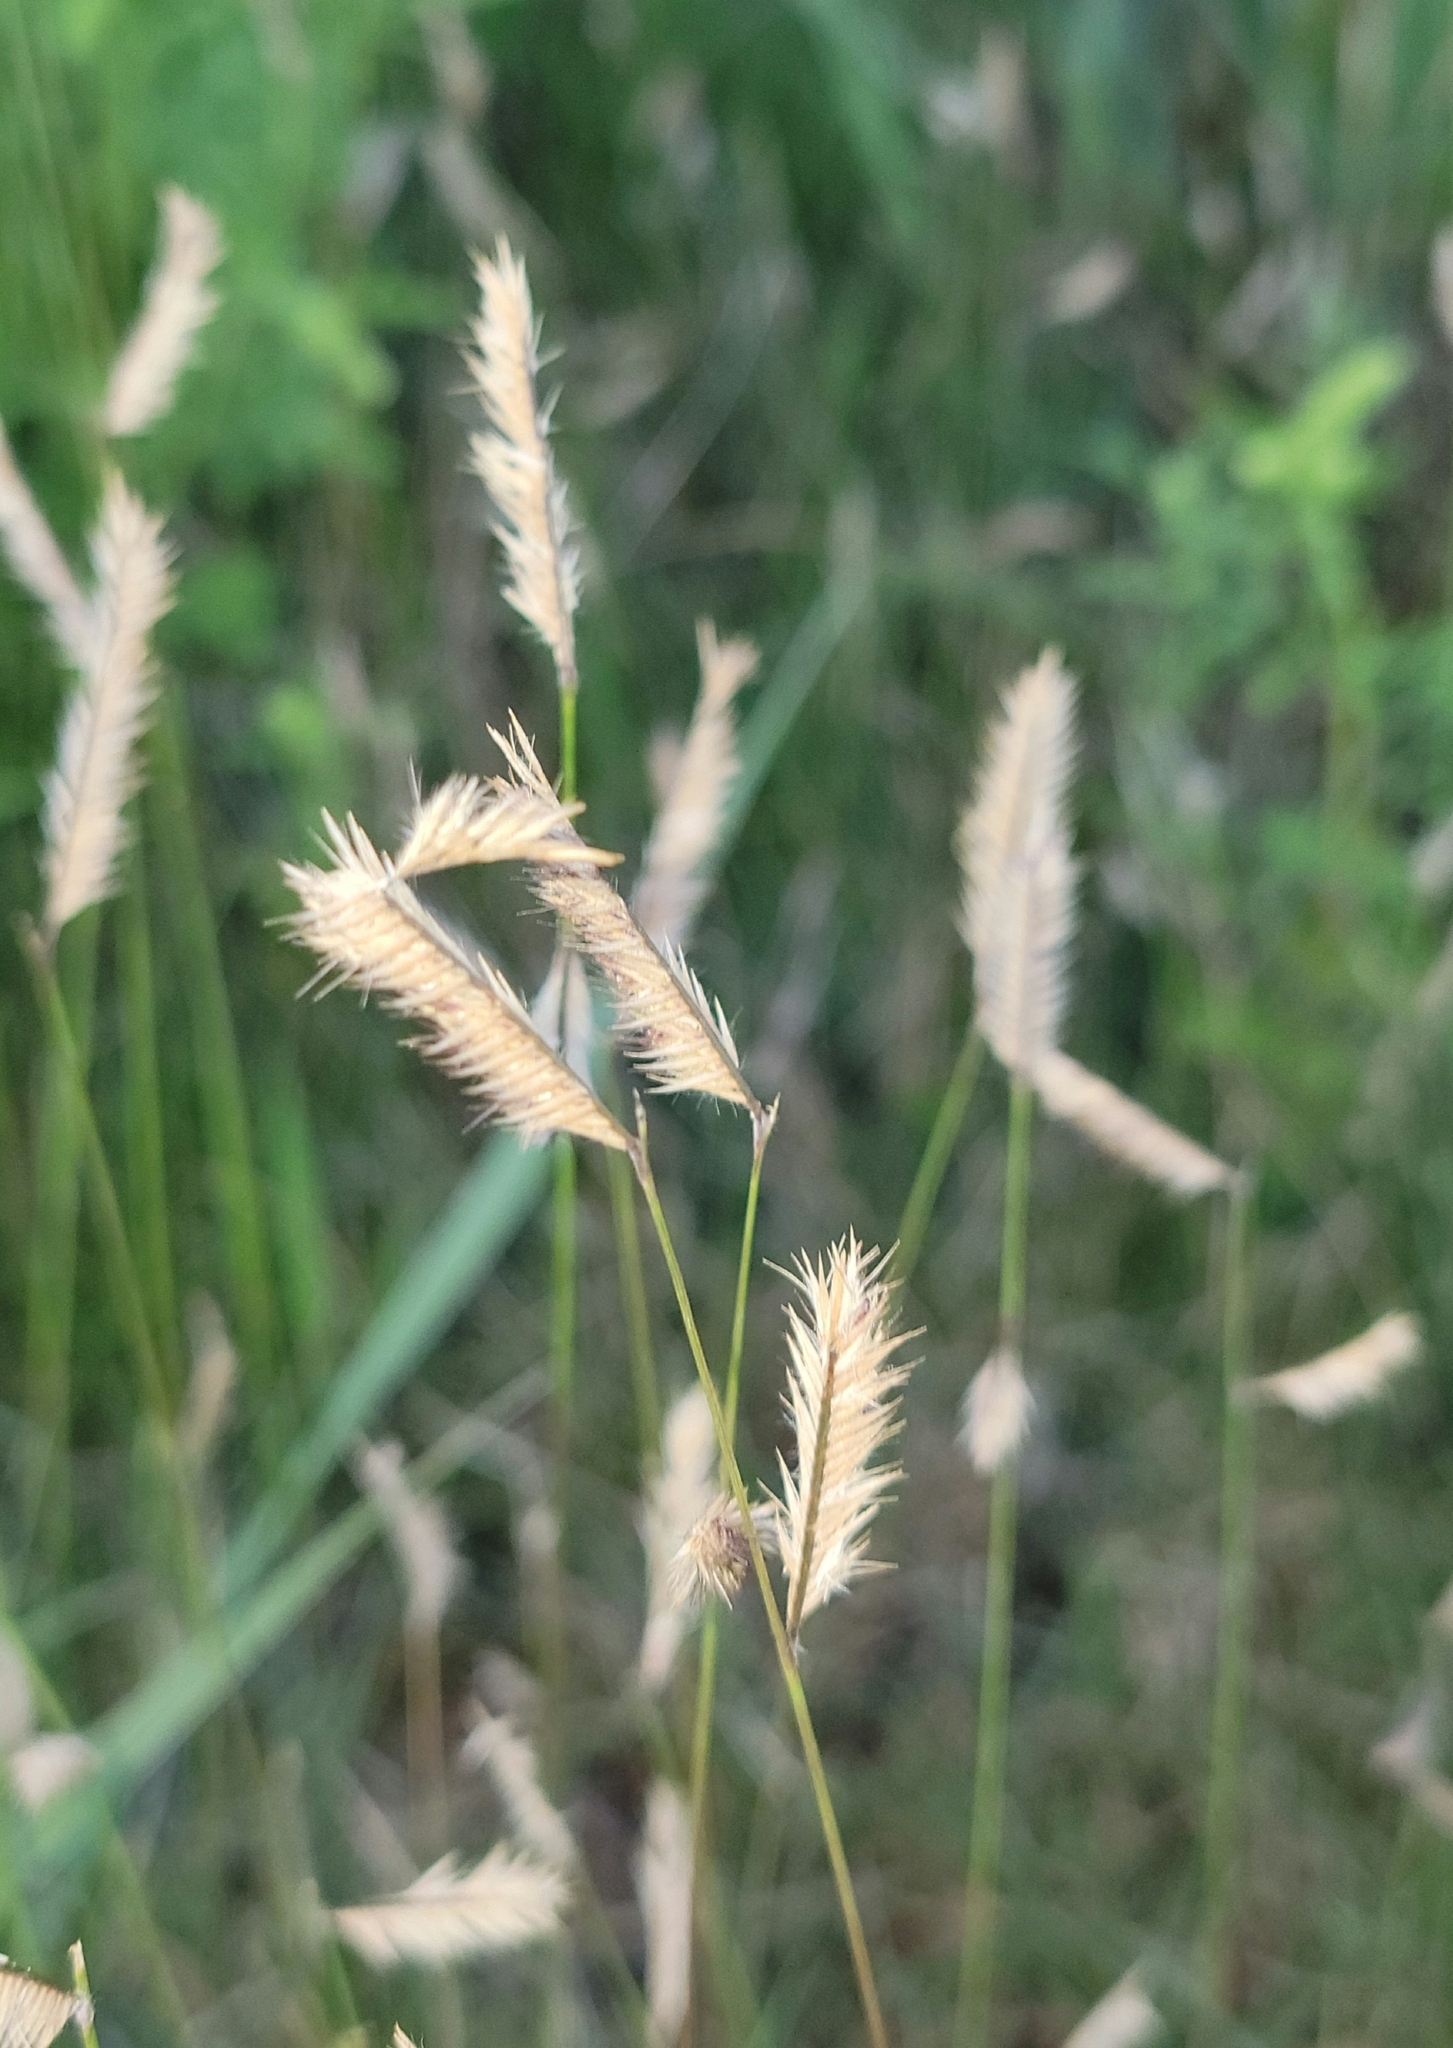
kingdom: Plantae
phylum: Tracheophyta
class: Liliopsida
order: Poales
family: Poaceae
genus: Bouteloua
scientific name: Bouteloua gracilis
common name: Blue grama
